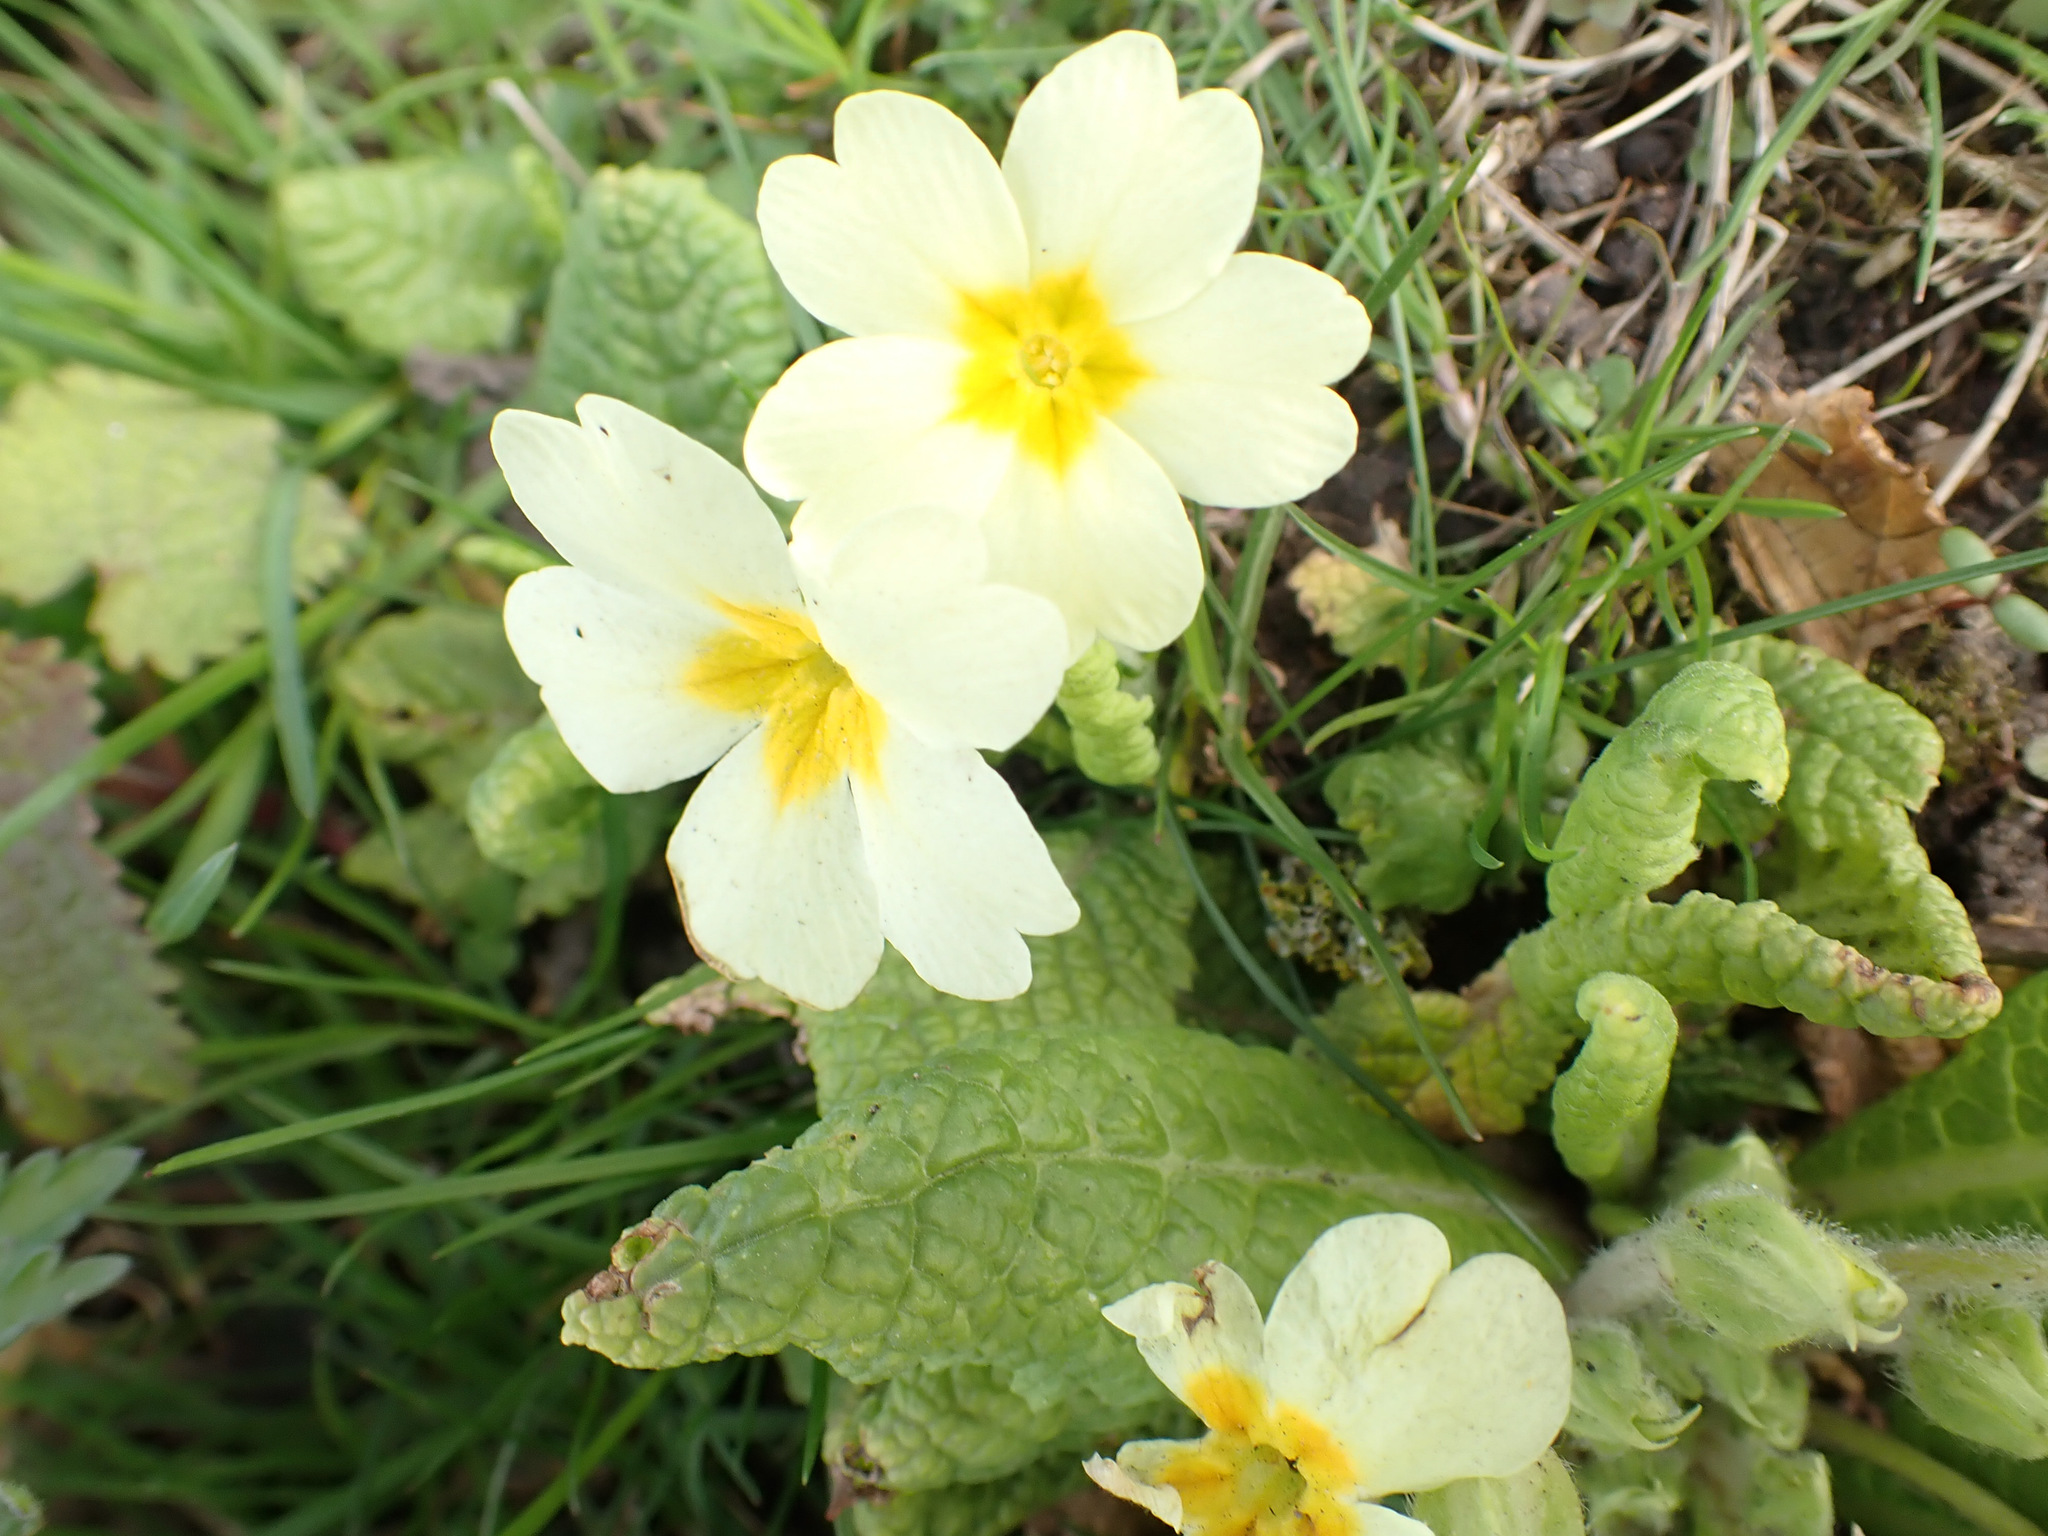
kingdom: Plantae
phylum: Tracheophyta
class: Magnoliopsida
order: Ericales
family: Primulaceae
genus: Primula
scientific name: Primula vulgaris
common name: Primrose
